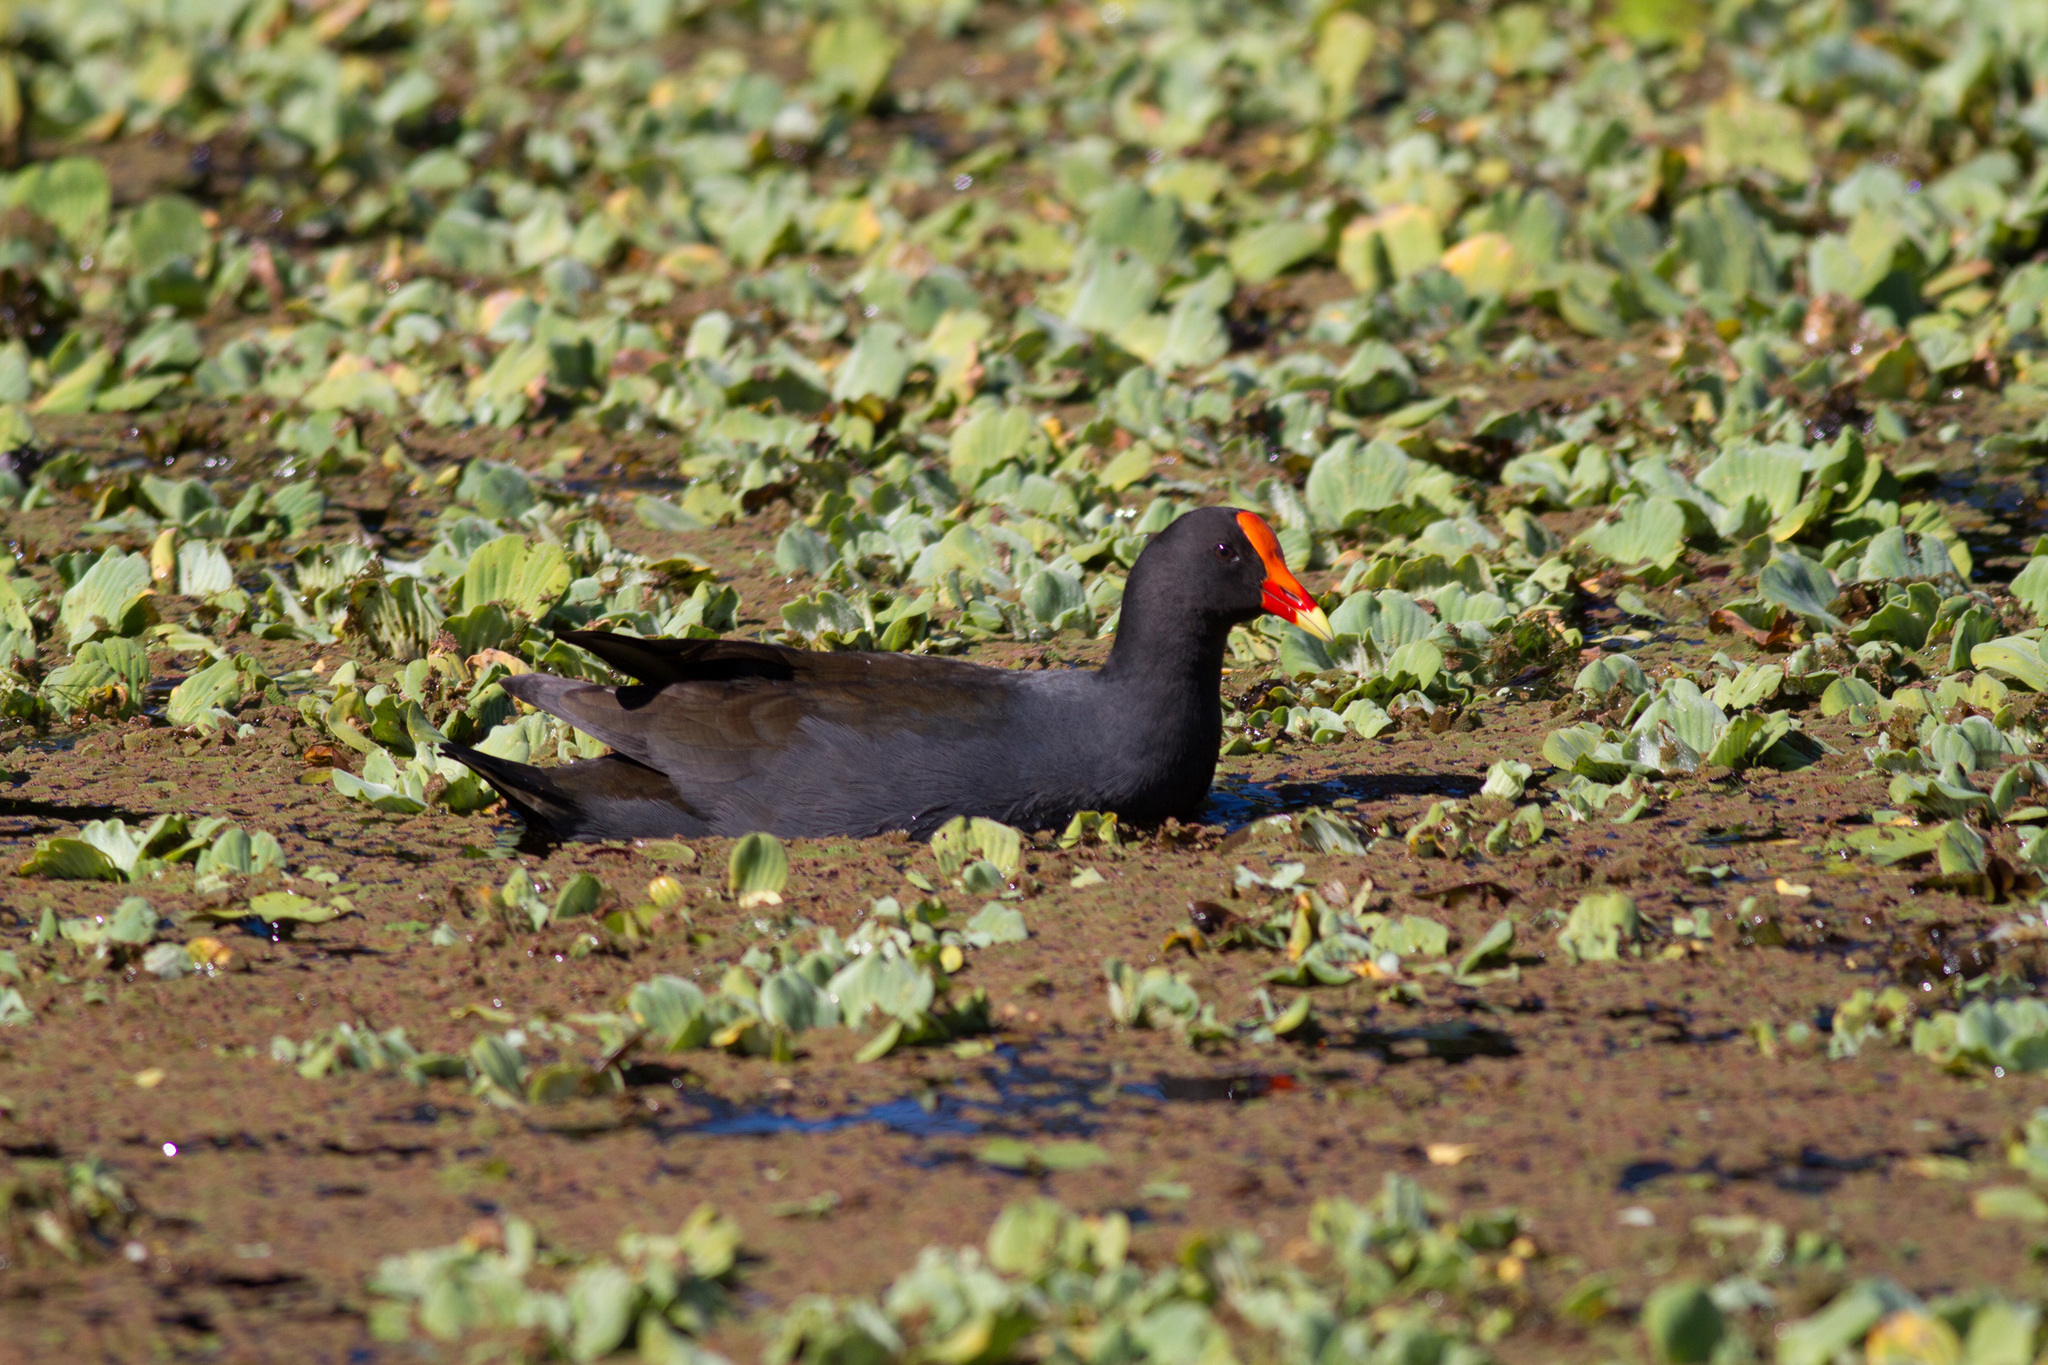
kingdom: Animalia
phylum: Chordata
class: Aves
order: Gruiformes
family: Rallidae
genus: Gallinula
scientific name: Gallinula tenebrosa
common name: Dusky moorhen
